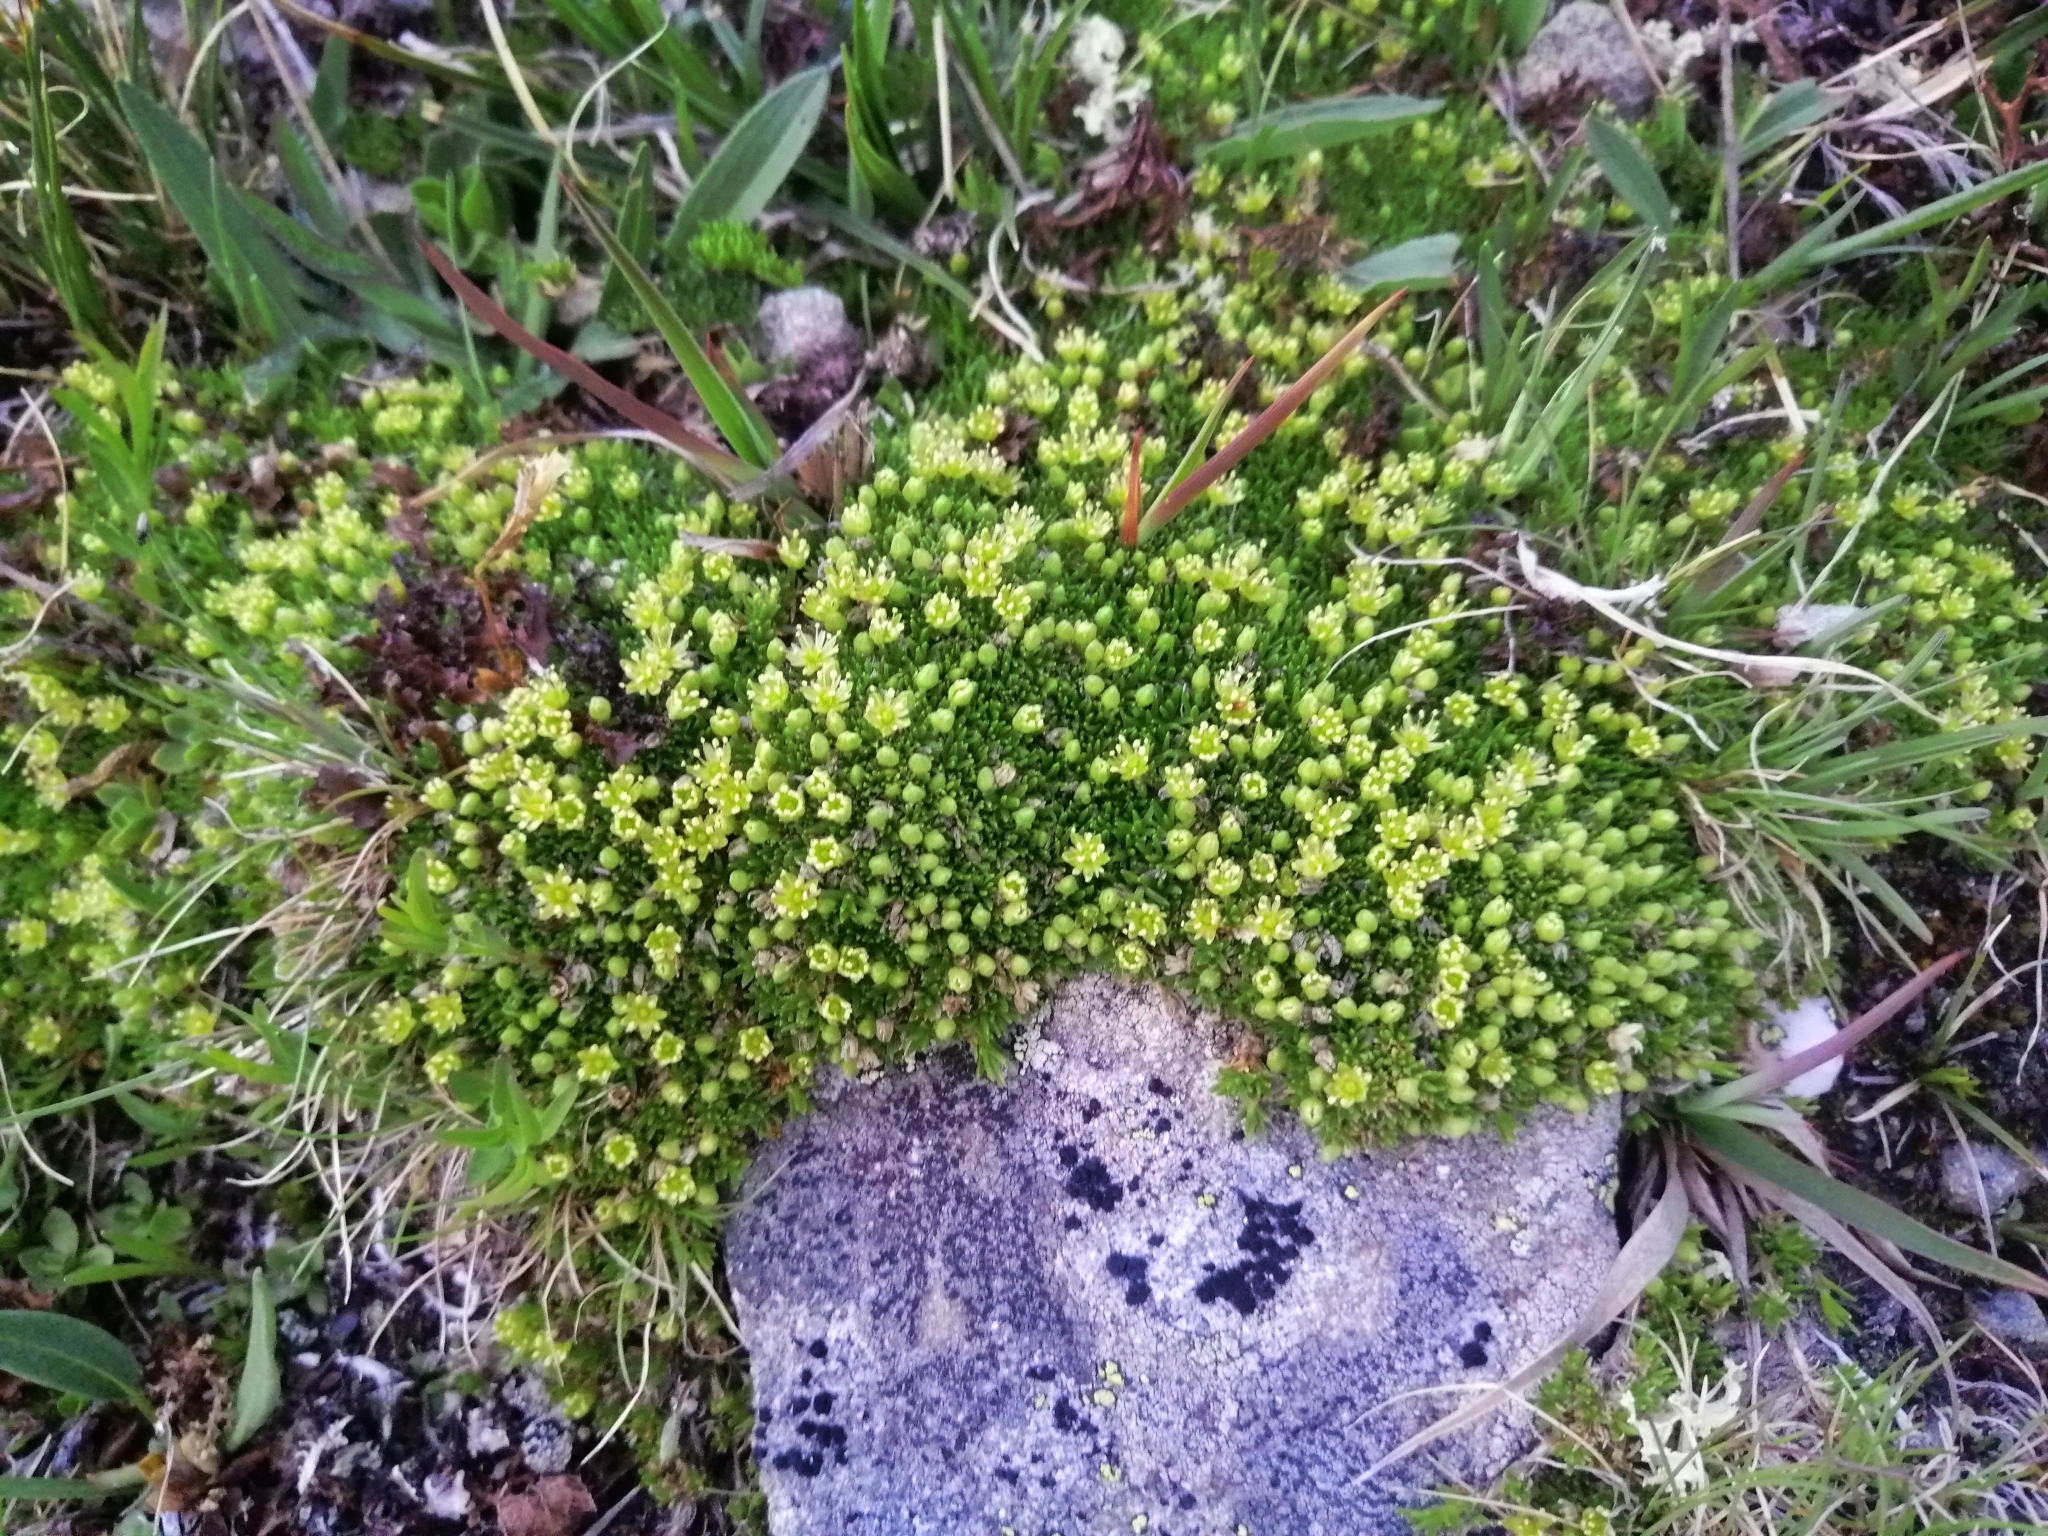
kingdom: Plantae
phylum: Tracheophyta
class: Magnoliopsida
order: Caryophyllales
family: Caryophyllaceae
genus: Cherleria
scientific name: Cherleria sedoides
